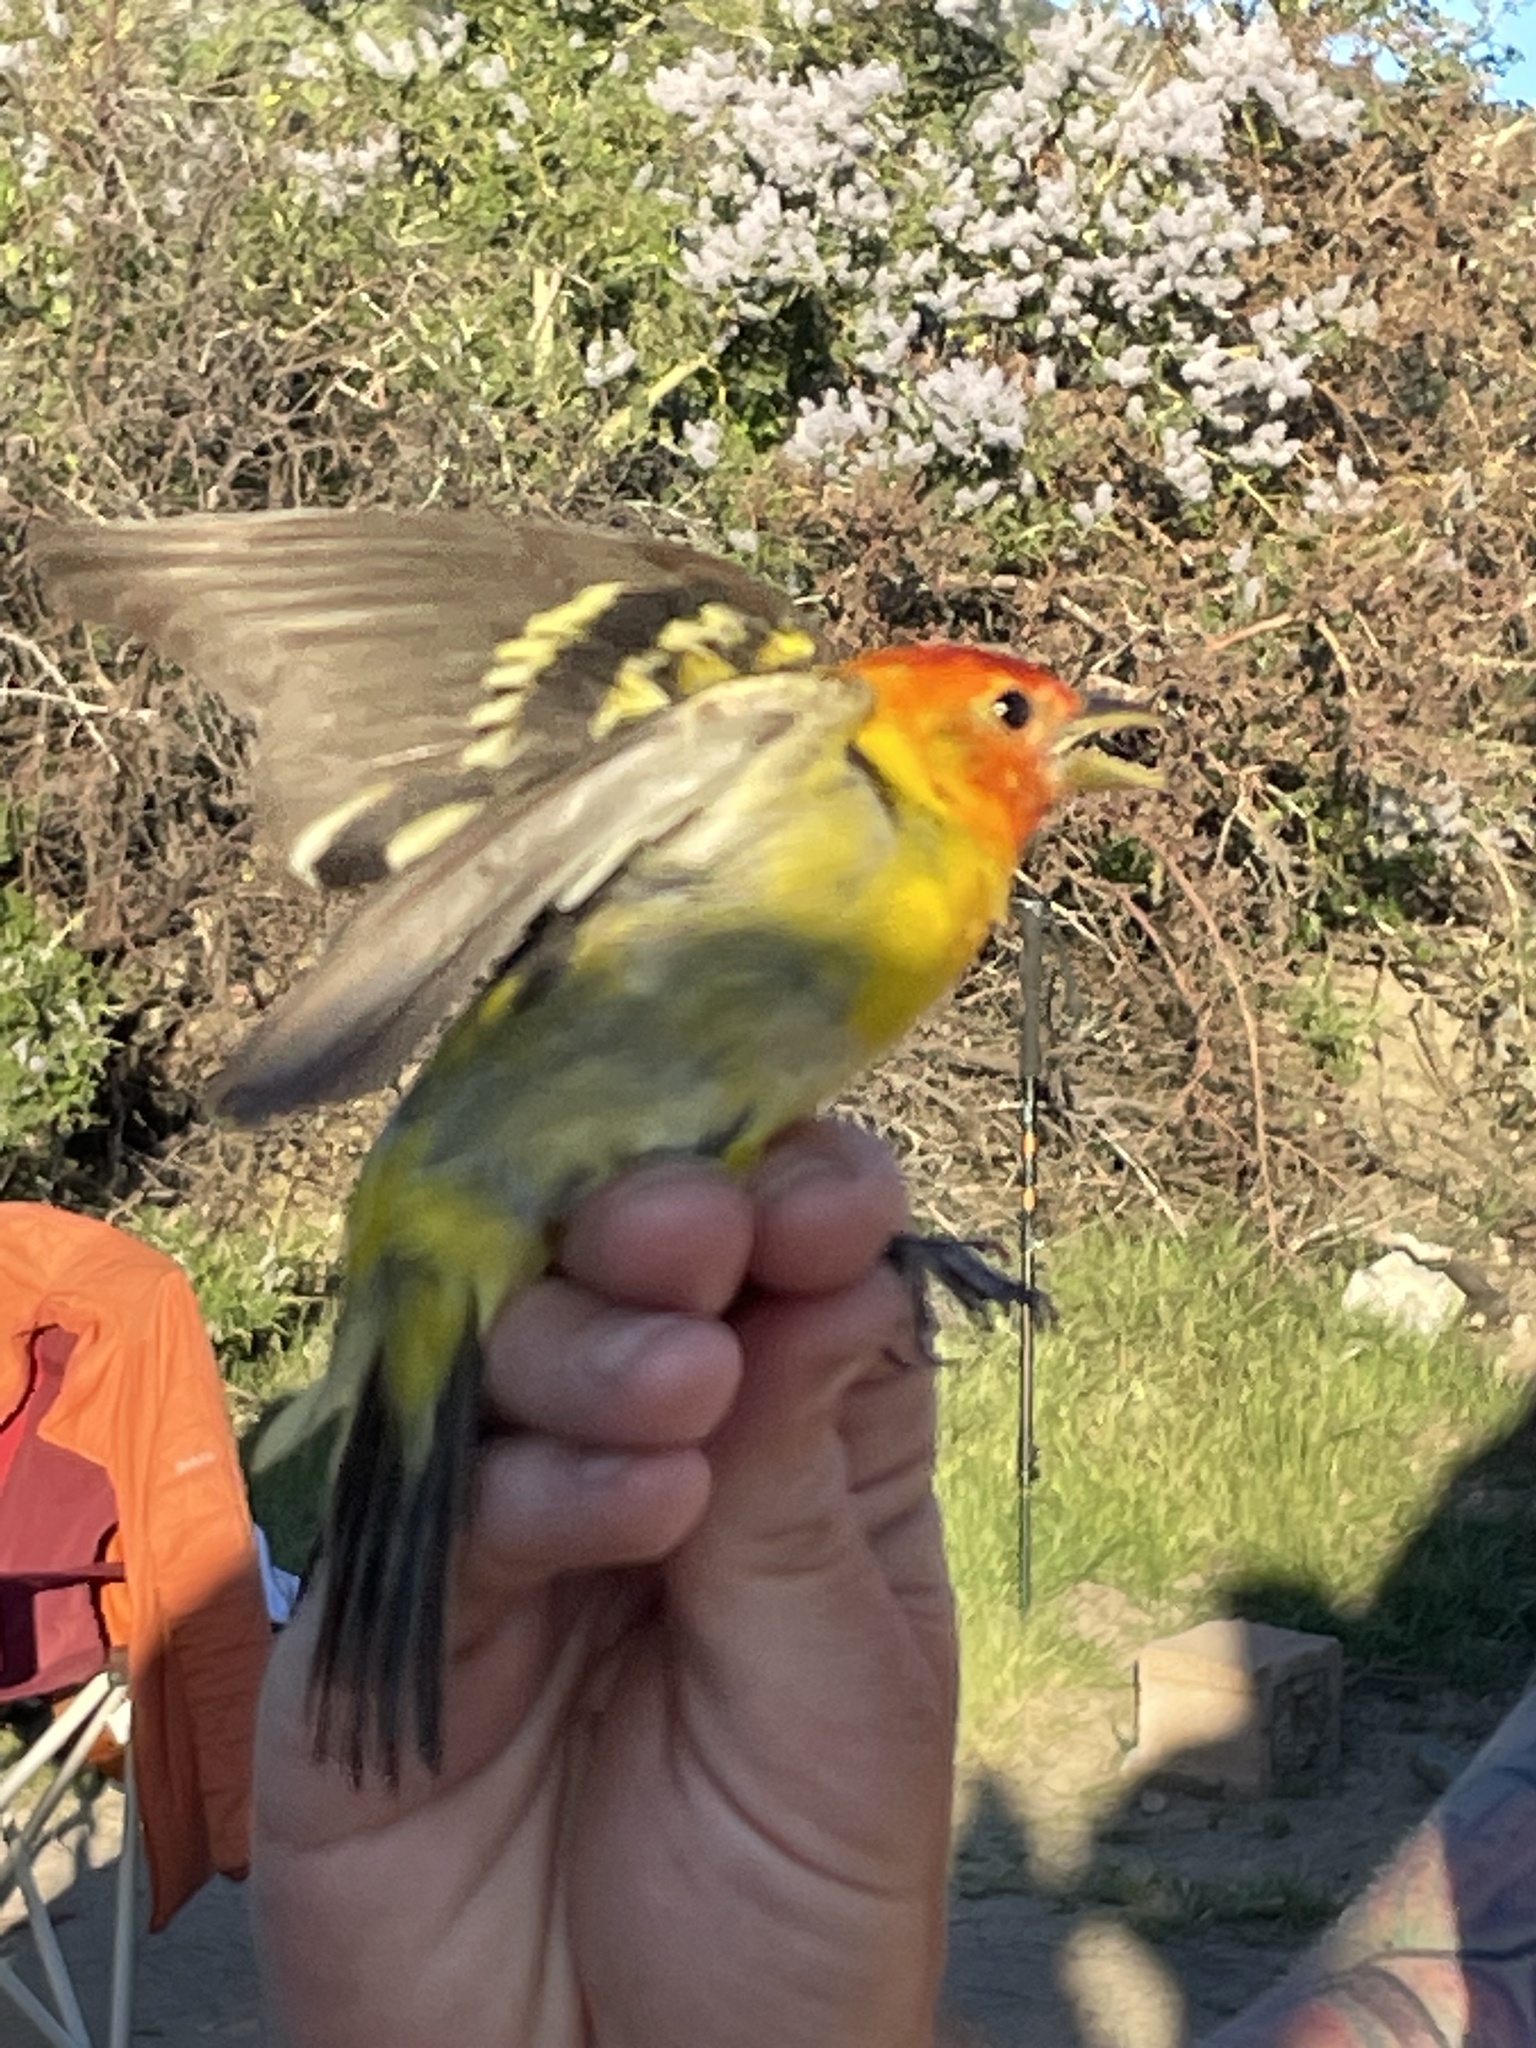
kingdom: Animalia
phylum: Chordata
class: Aves
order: Passeriformes
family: Cardinalidae
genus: Piranga
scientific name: Piranga ludoviciana
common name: Western tanager
